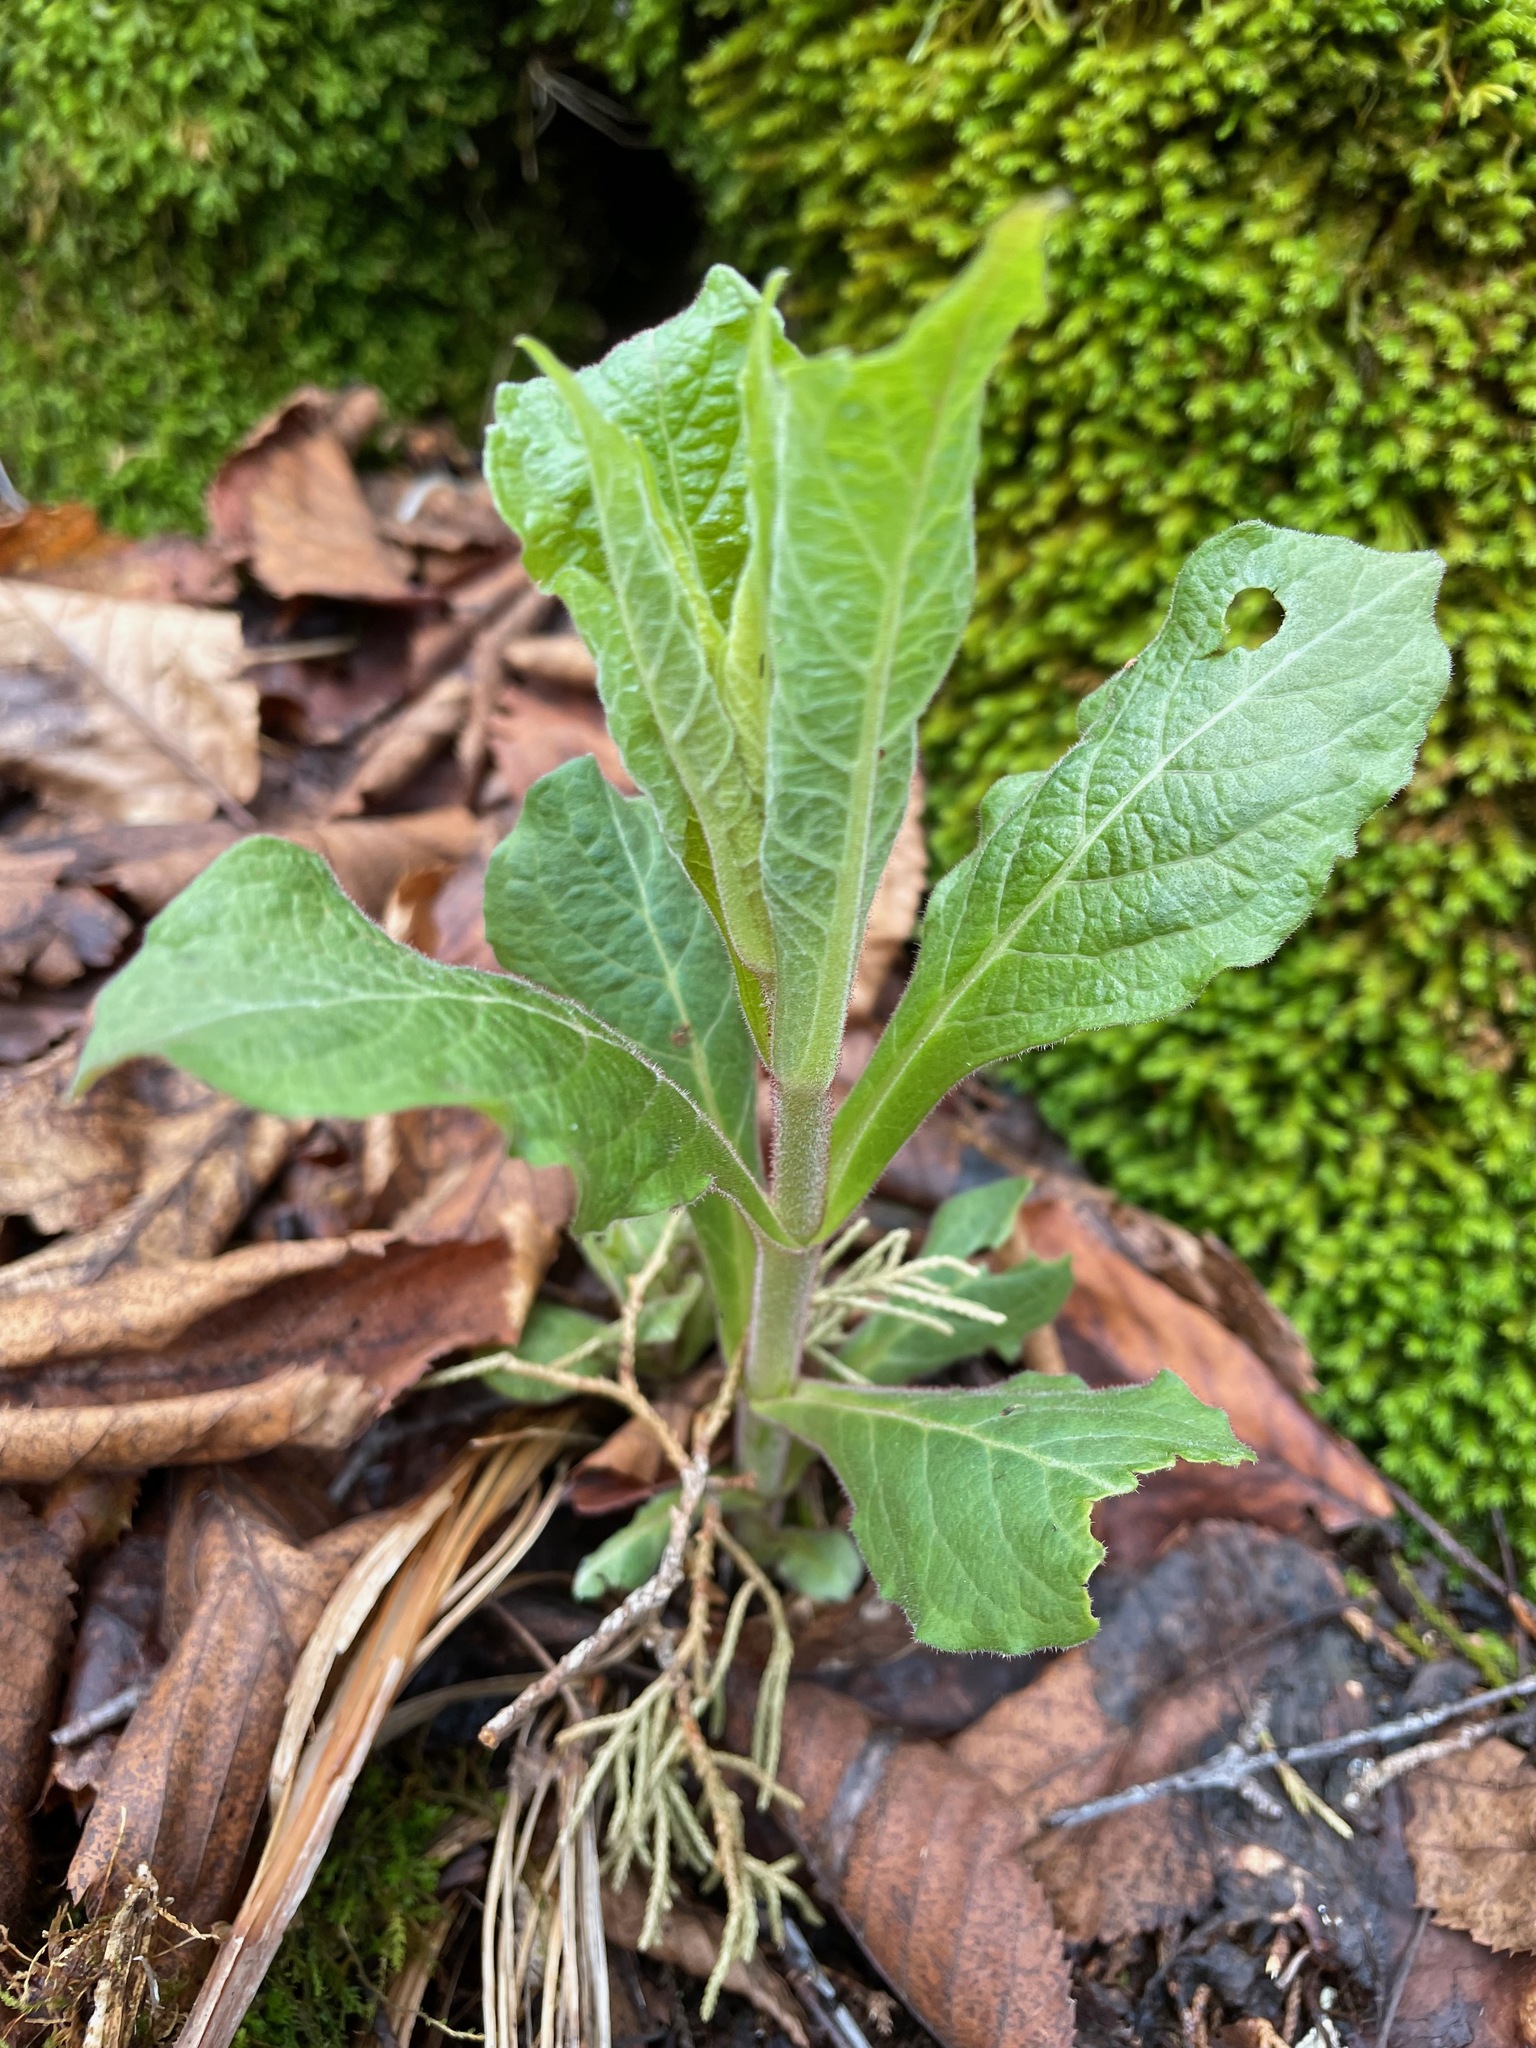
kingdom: Plantae
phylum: Tracheophyta
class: Magnoliopsida
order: Dipsacales
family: Caprifoliaceae
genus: Triosteum
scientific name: Triosteum aurantiacum
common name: Coffee tinker's-weed
